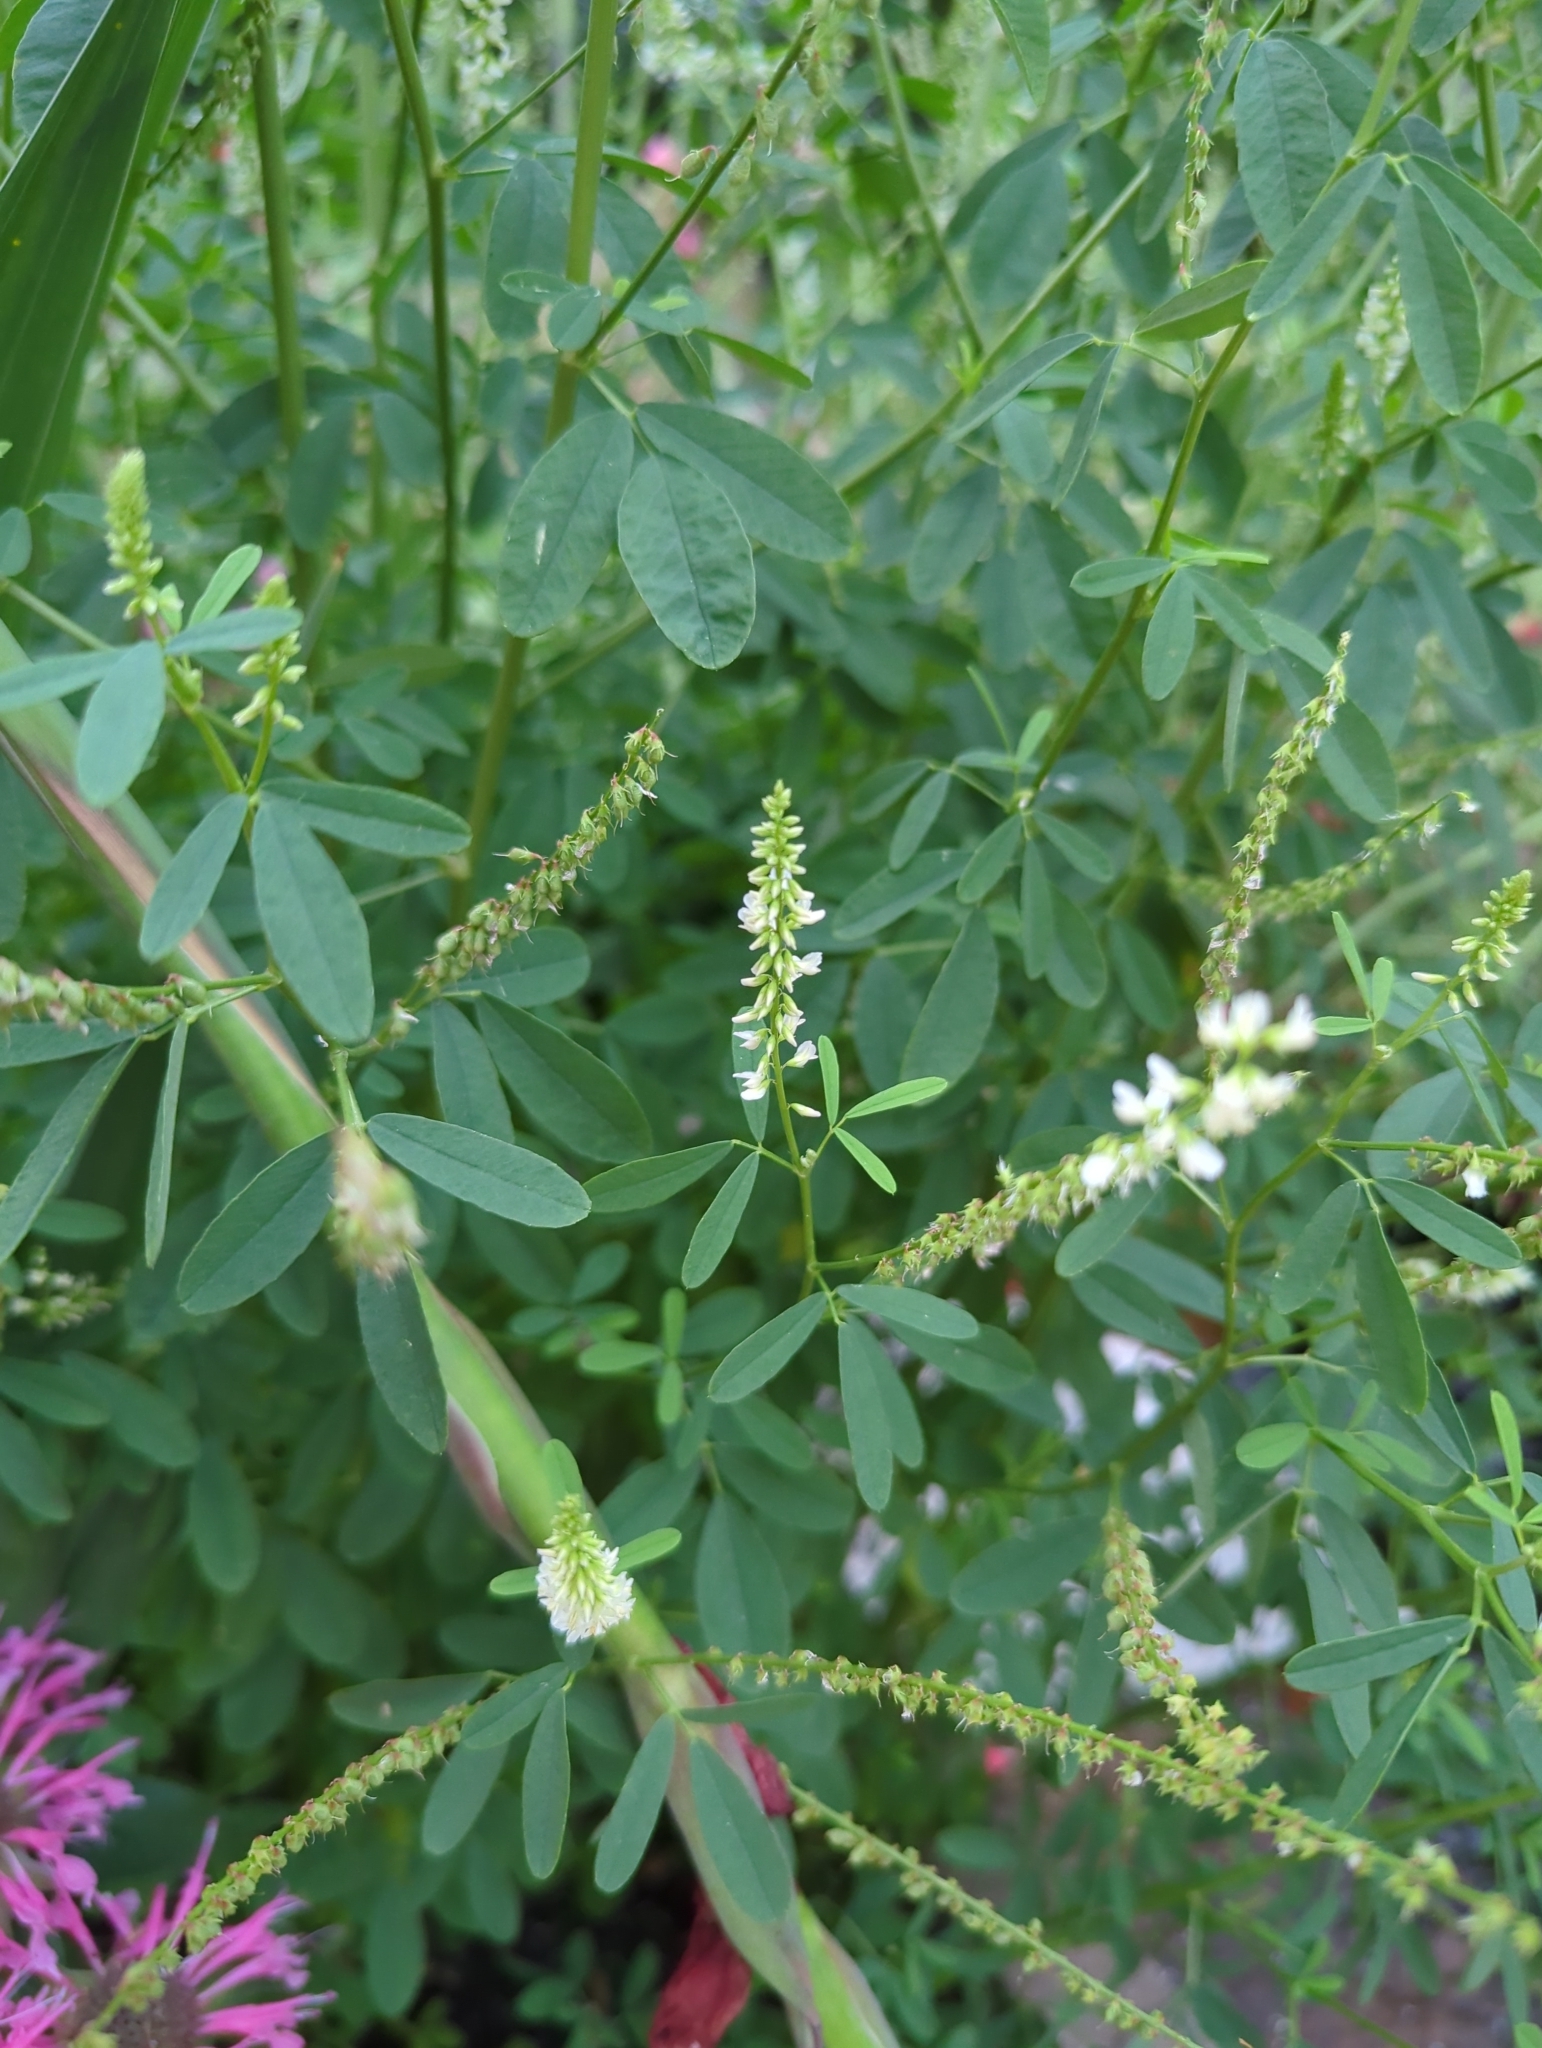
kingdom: Plantae
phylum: Tracheophyta
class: Magnoliopsida
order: Fabales
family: Fabaceae
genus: Melilotus
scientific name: Melilotus albus
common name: White melilot
